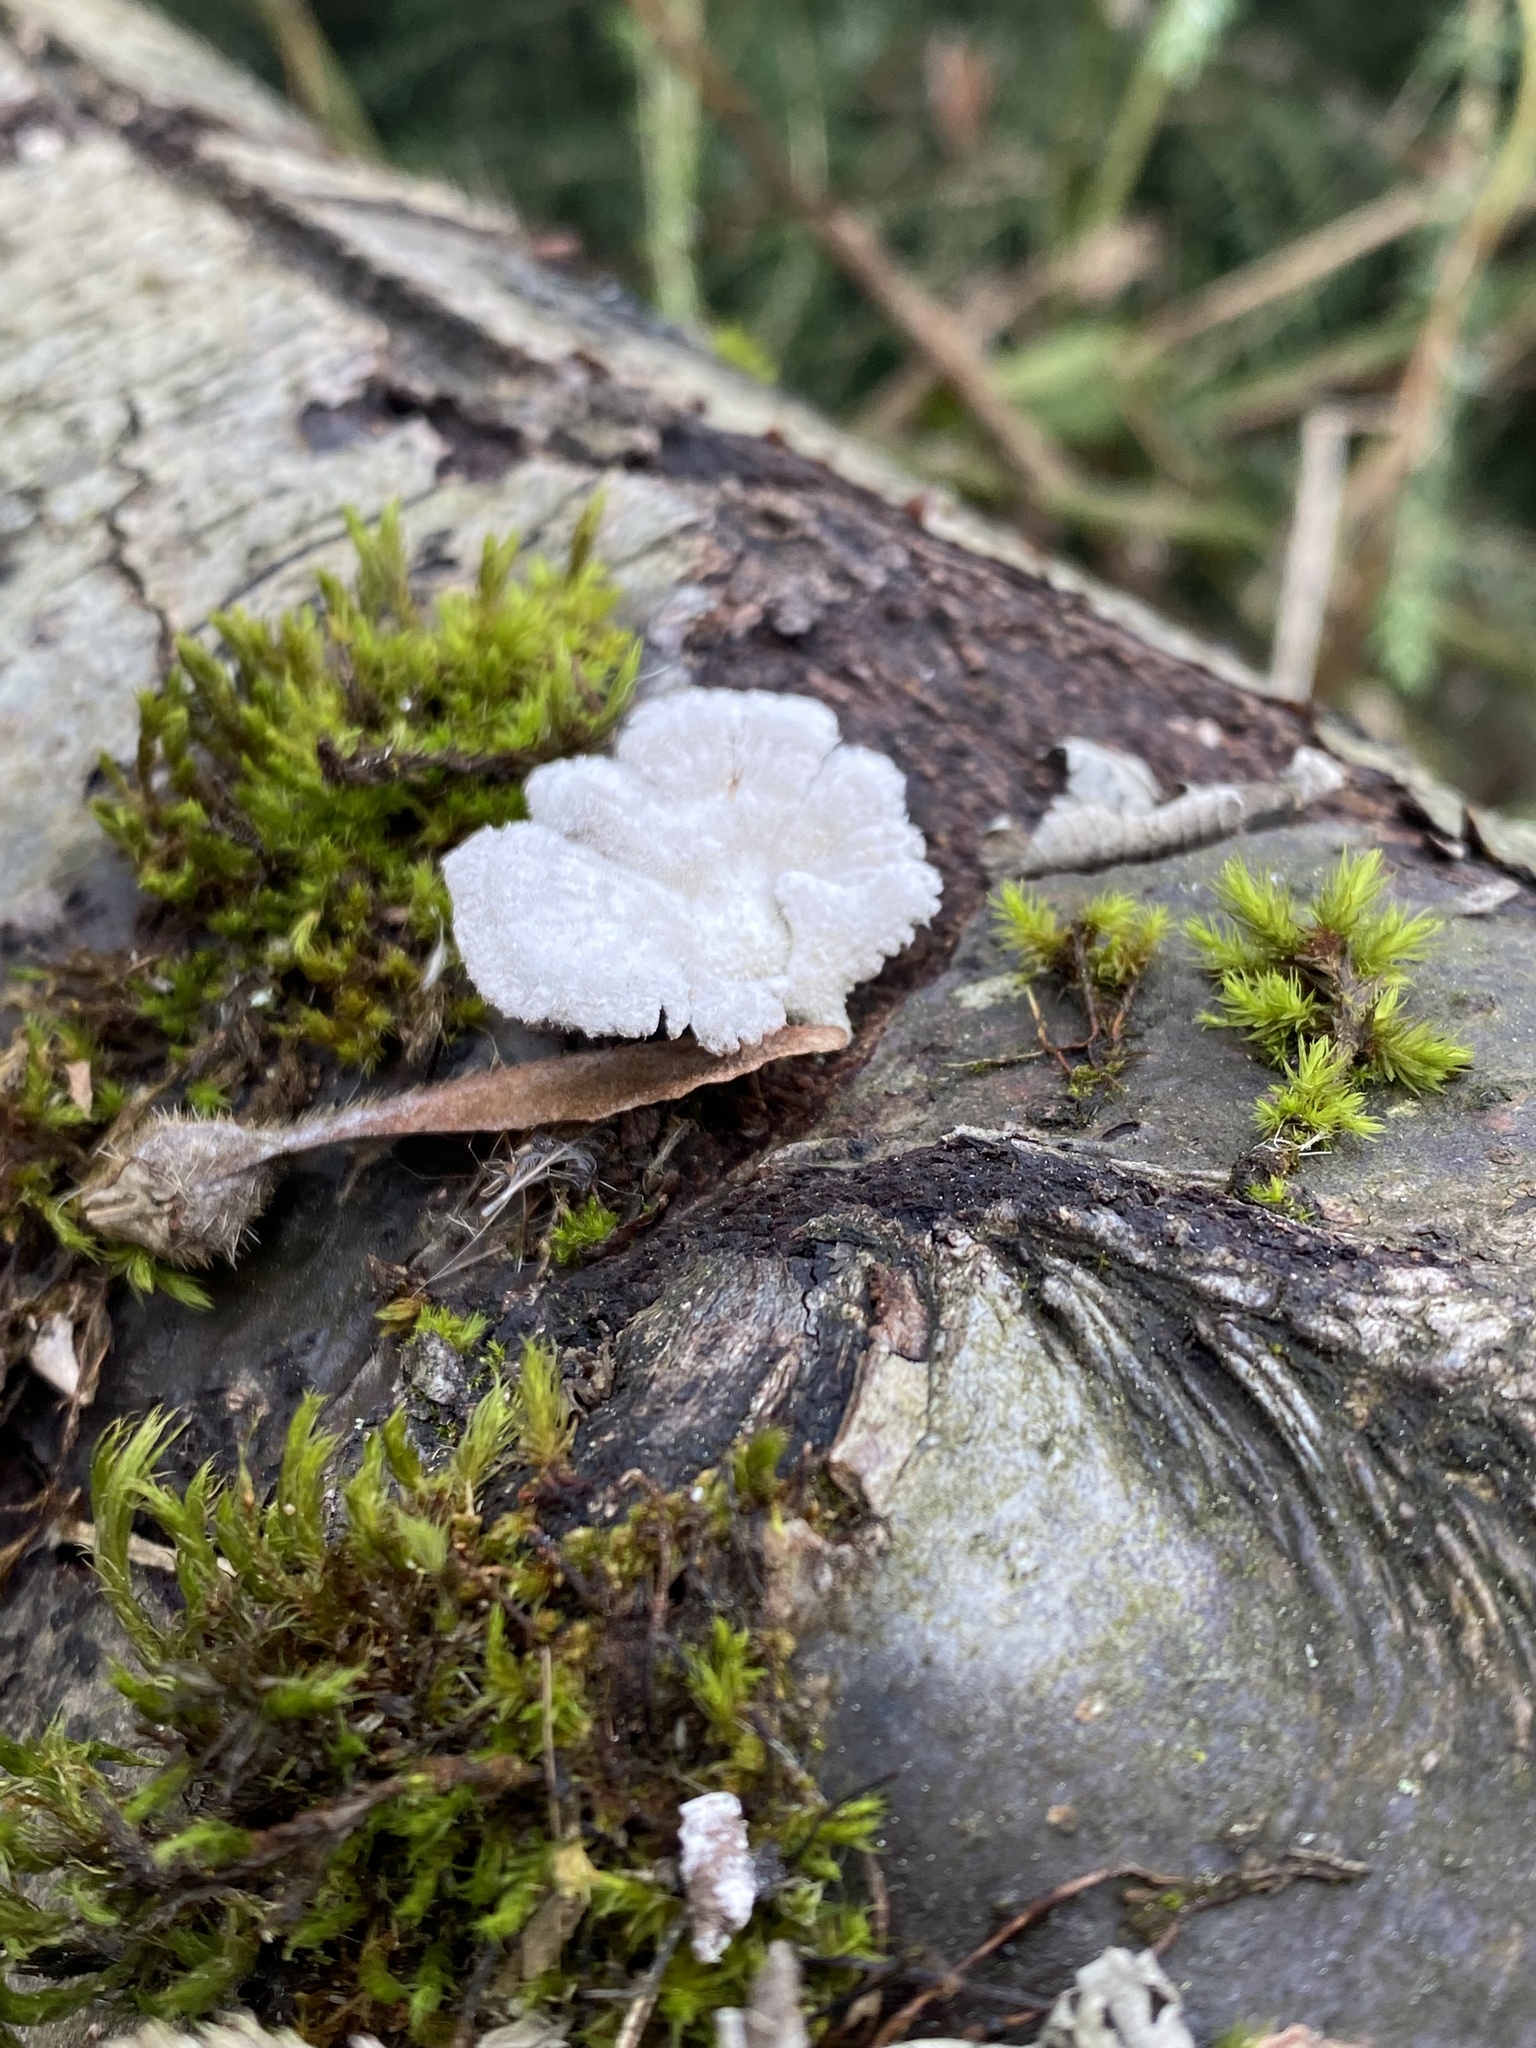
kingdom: Fungi
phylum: Basidiomycota
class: Agaricomycetes
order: Agaricales
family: Schizophyllaceae
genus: Schizophyllum
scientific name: Schizophyllum commune
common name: Common porecrust
